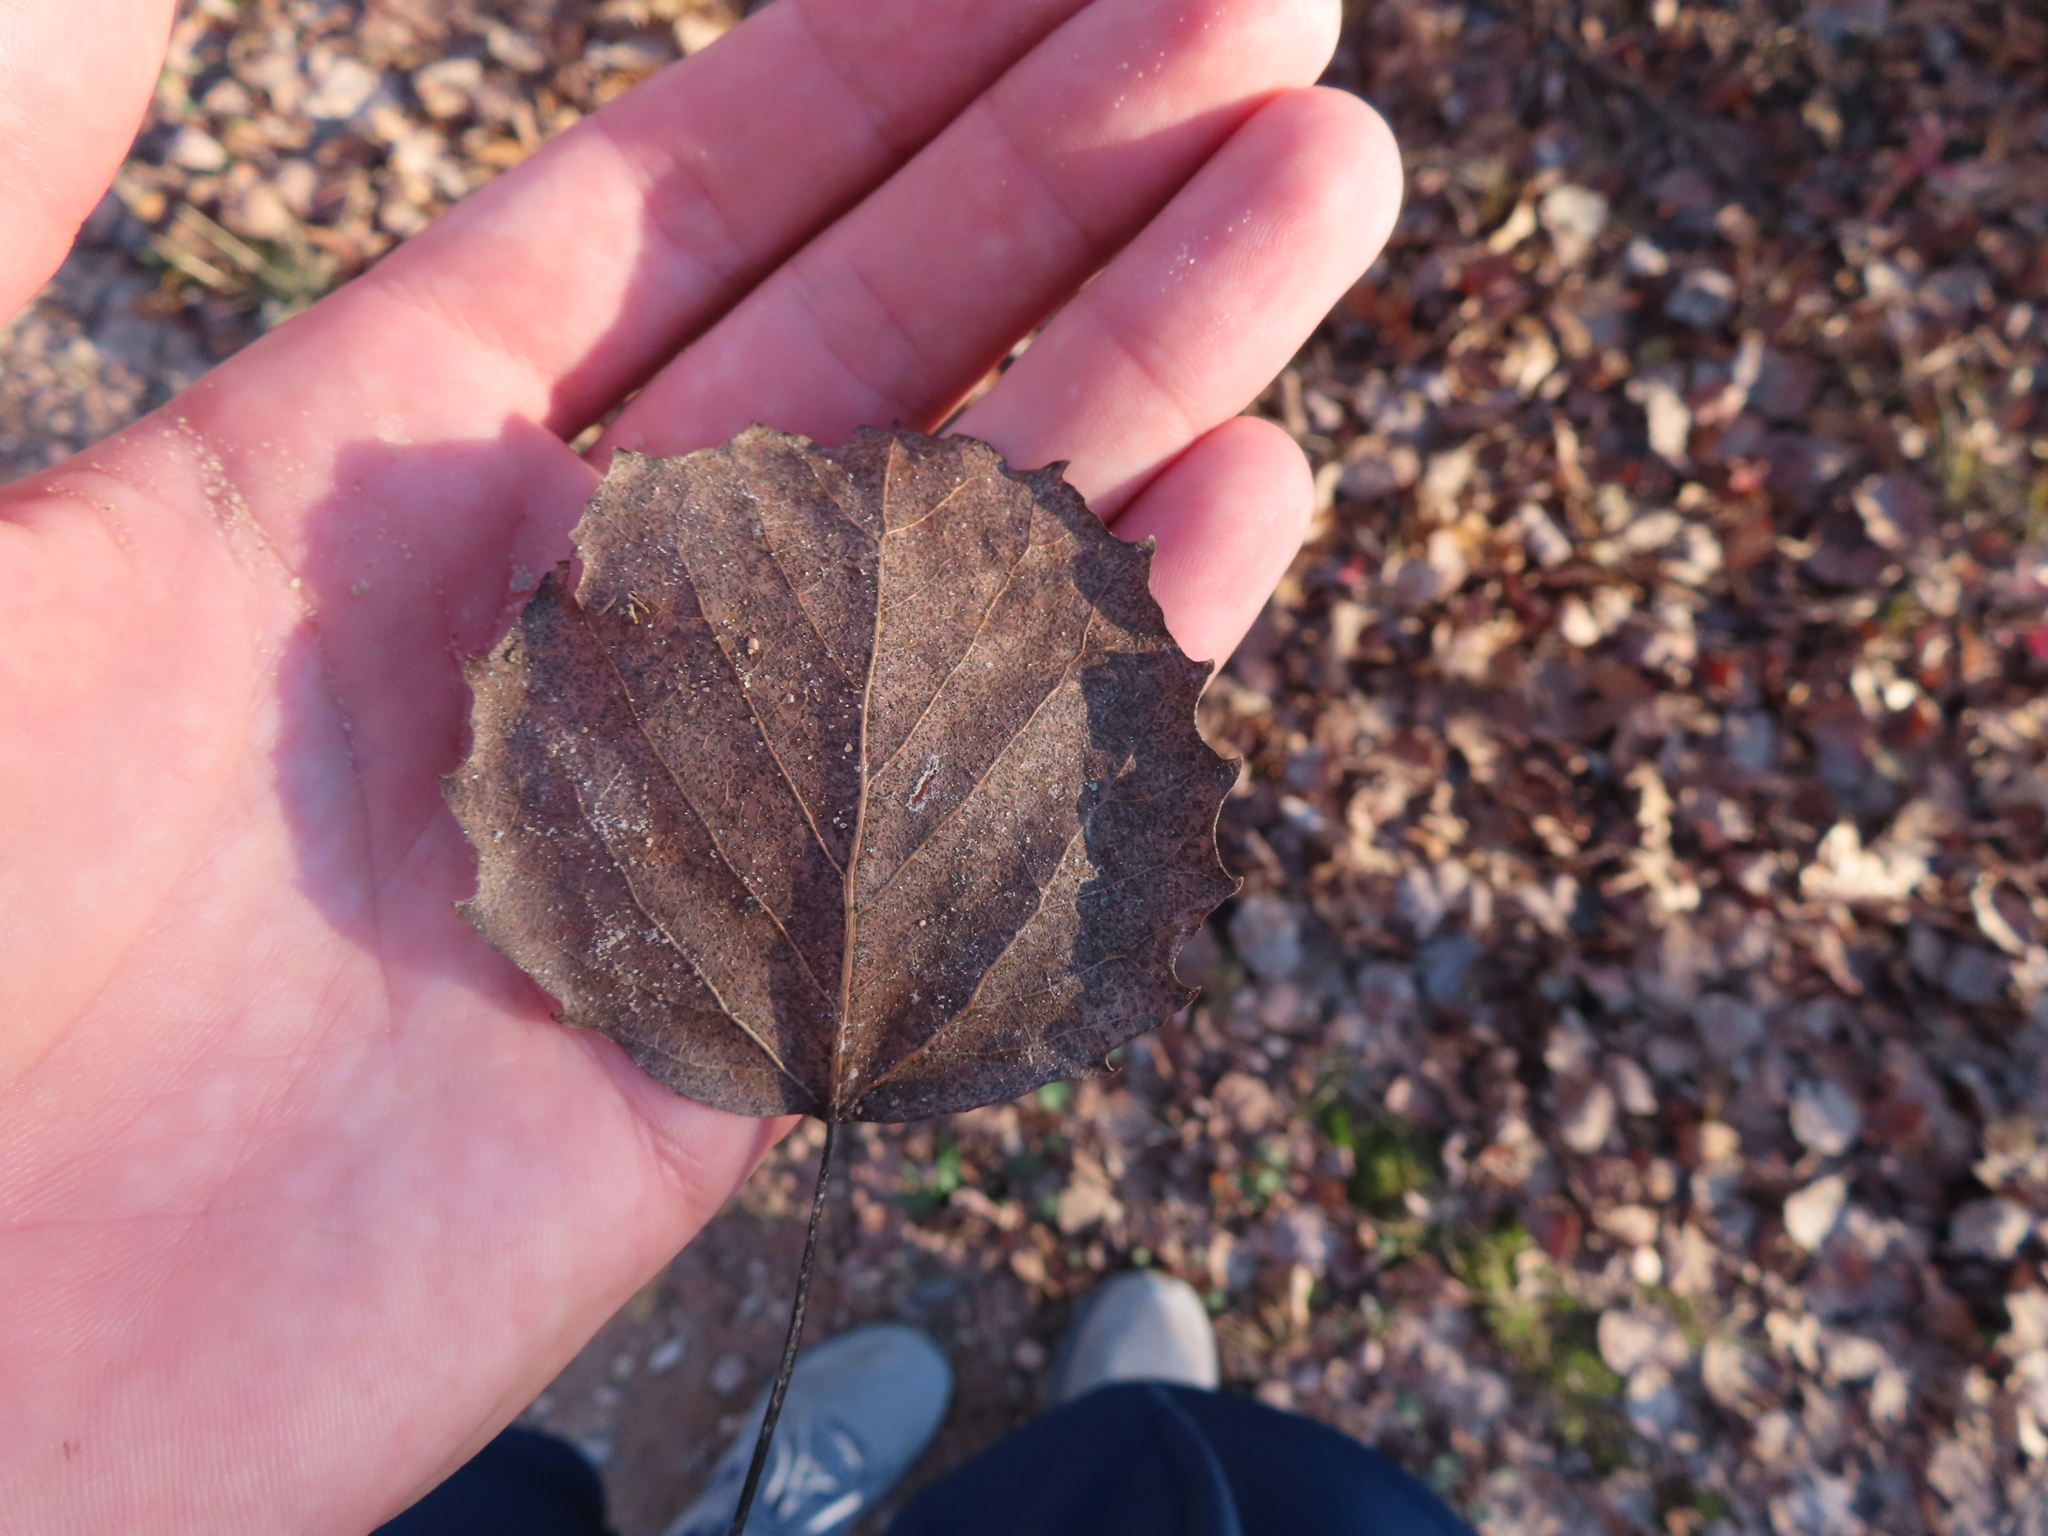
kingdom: Plantae
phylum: Tracheophyta
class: Magnoliopsida
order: Malpighiales
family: Salicaceae
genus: Populus
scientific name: Populus grandidentata
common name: Bigtooth aspen
